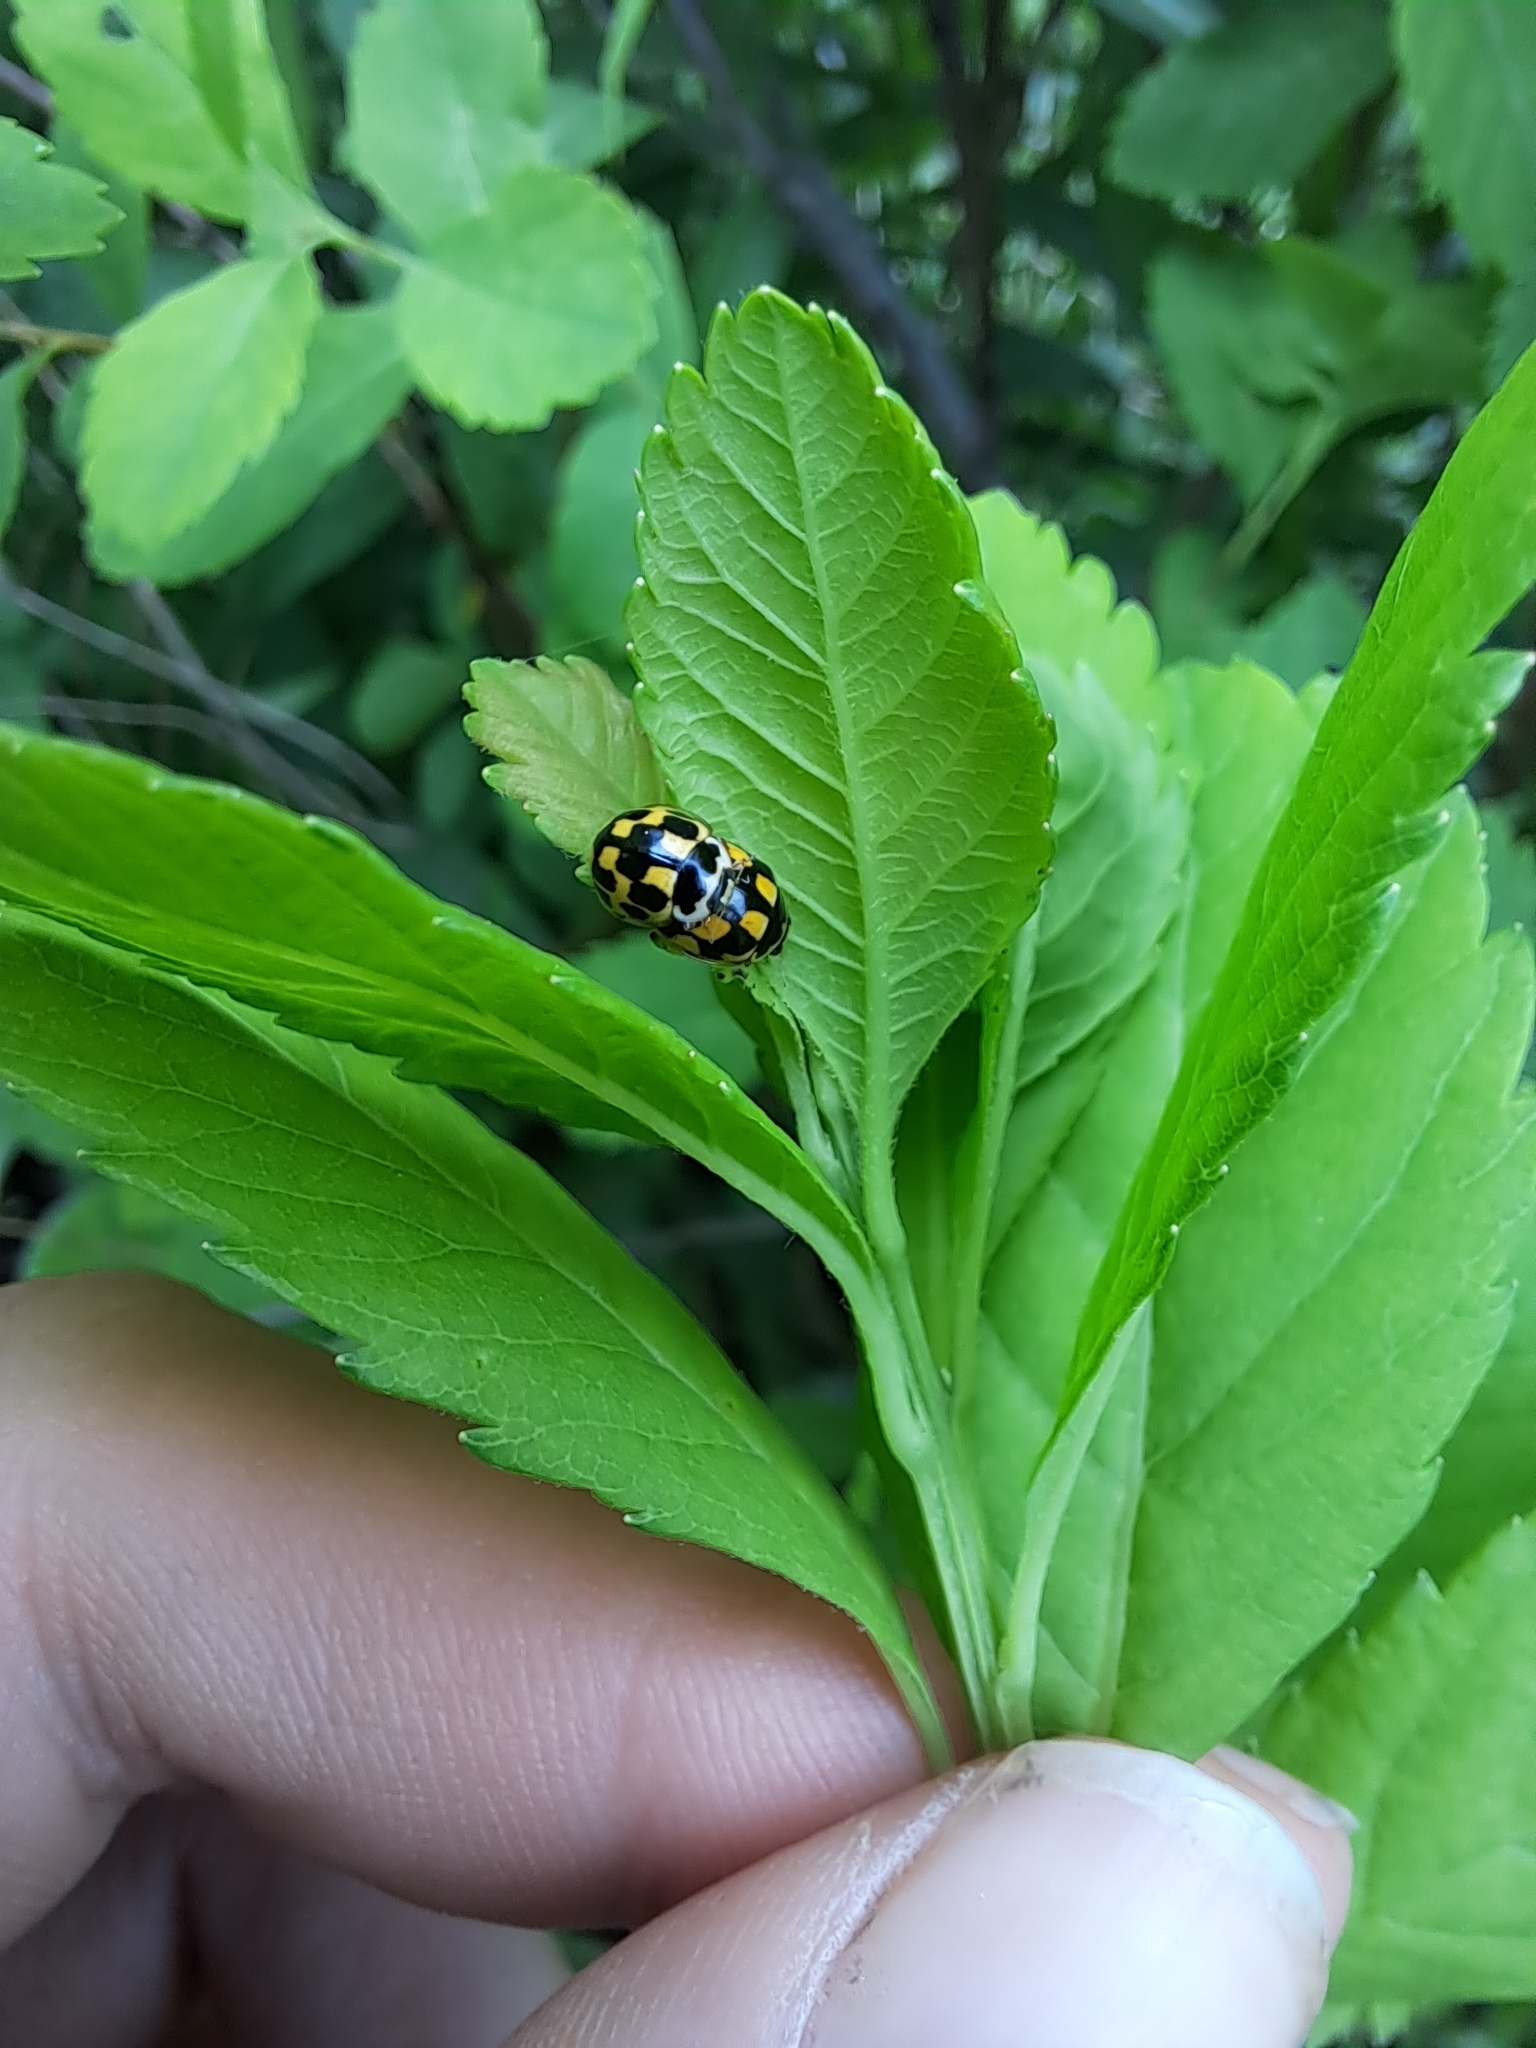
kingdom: Animalia
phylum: Arthropoda
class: Insecta
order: Coleoptera
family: Coccinellidae
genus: Propylaea
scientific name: Propylaea quatuordecimpunctata
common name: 14-spotted ladybird beetle
